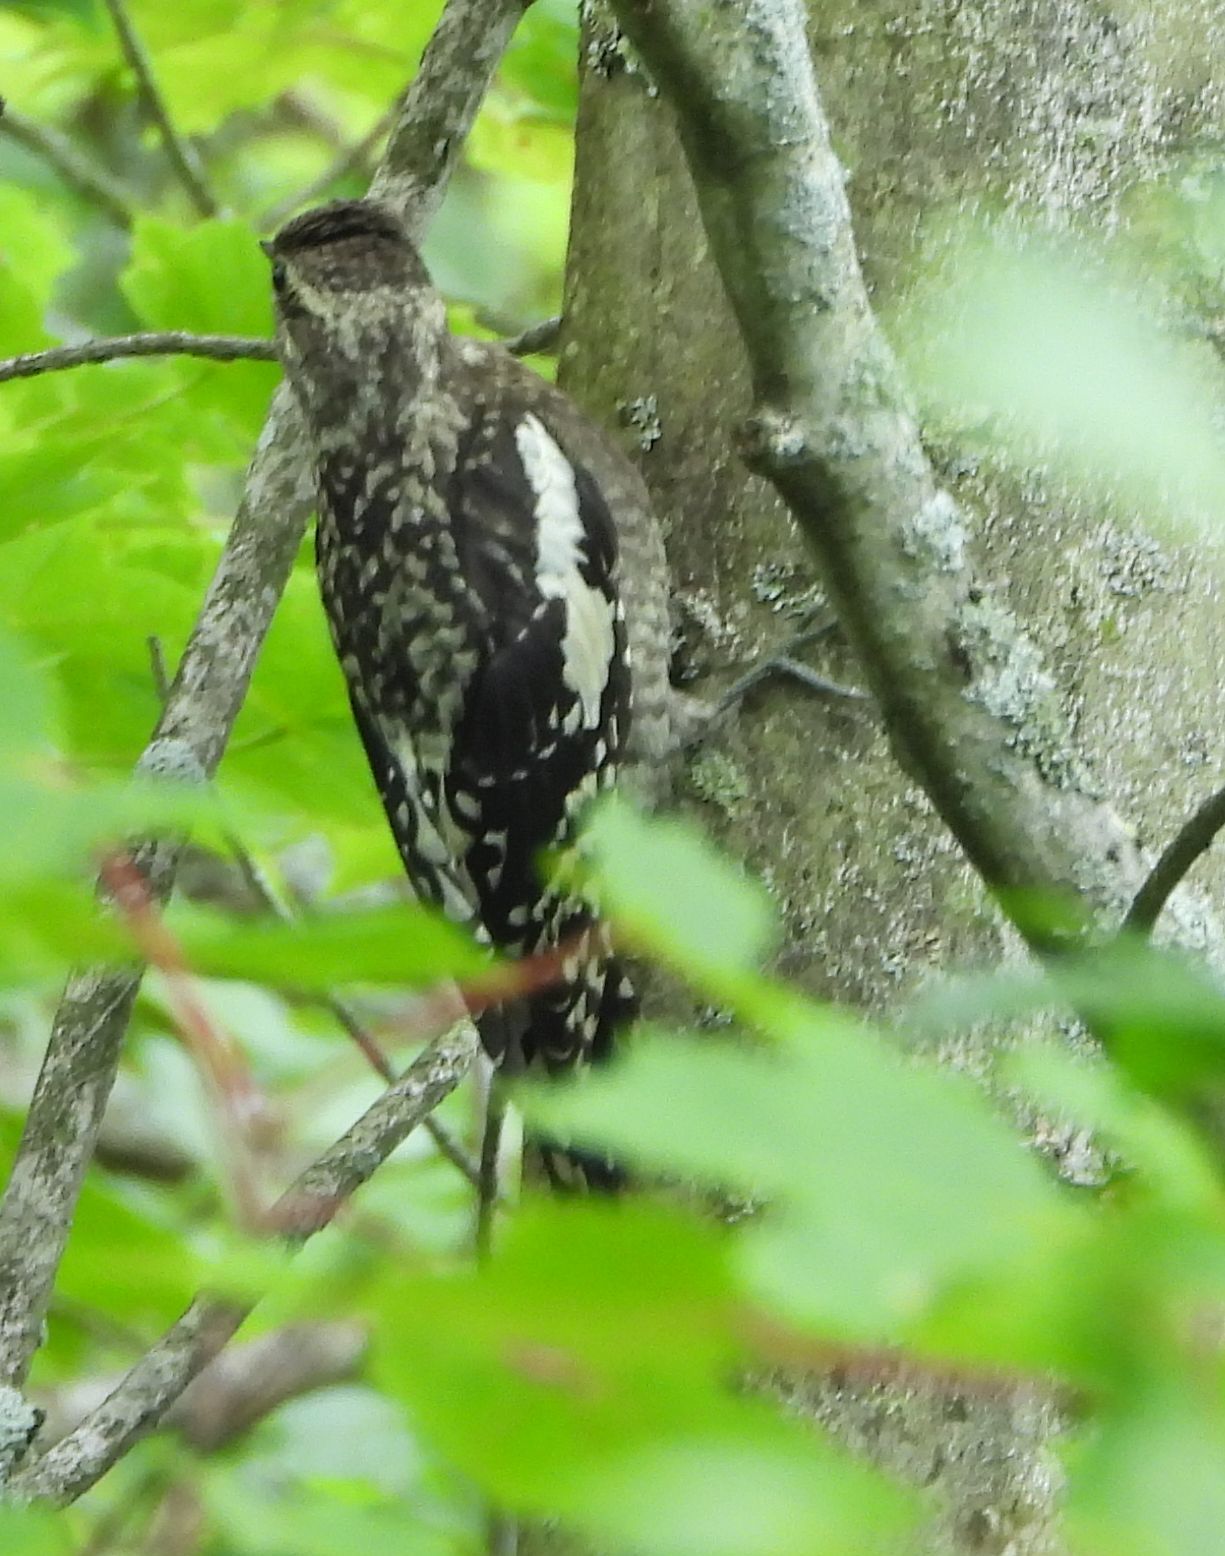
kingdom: Animalia
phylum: Chordata
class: Aves
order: Piciformes
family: Picidae
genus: Sphyrapicus
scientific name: Sphyrapicus varius
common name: Yellow-bellied sapsucker
